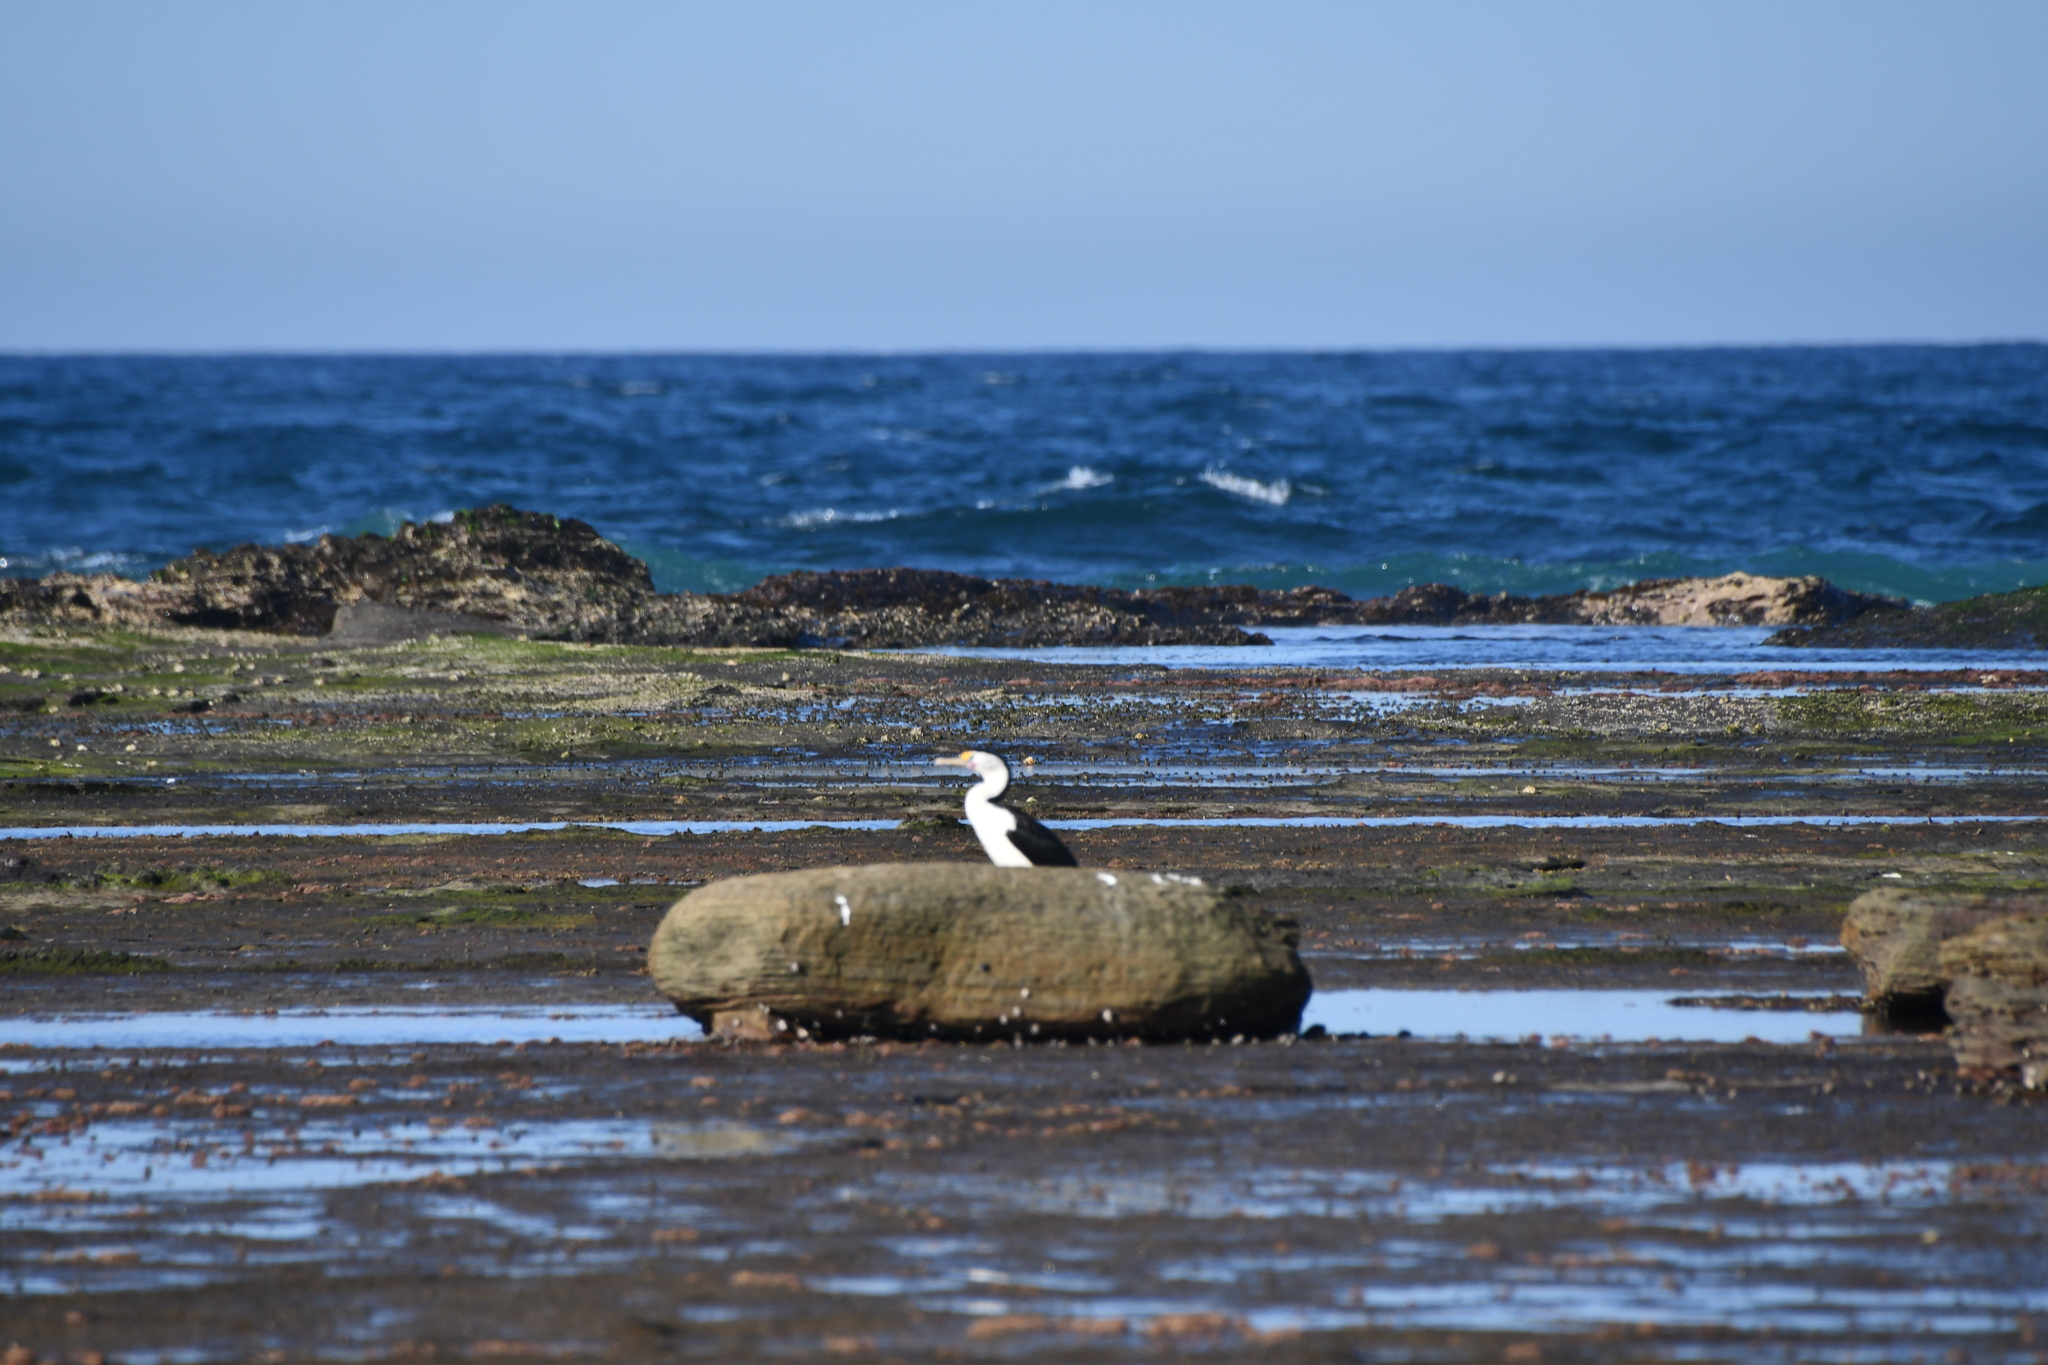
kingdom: Animalia
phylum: Chordata
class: Aves
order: Suliformes
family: Phalacrocoracidae
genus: Phalacrocorax
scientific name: Phalacrocorax varius
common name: Pied cormorant
